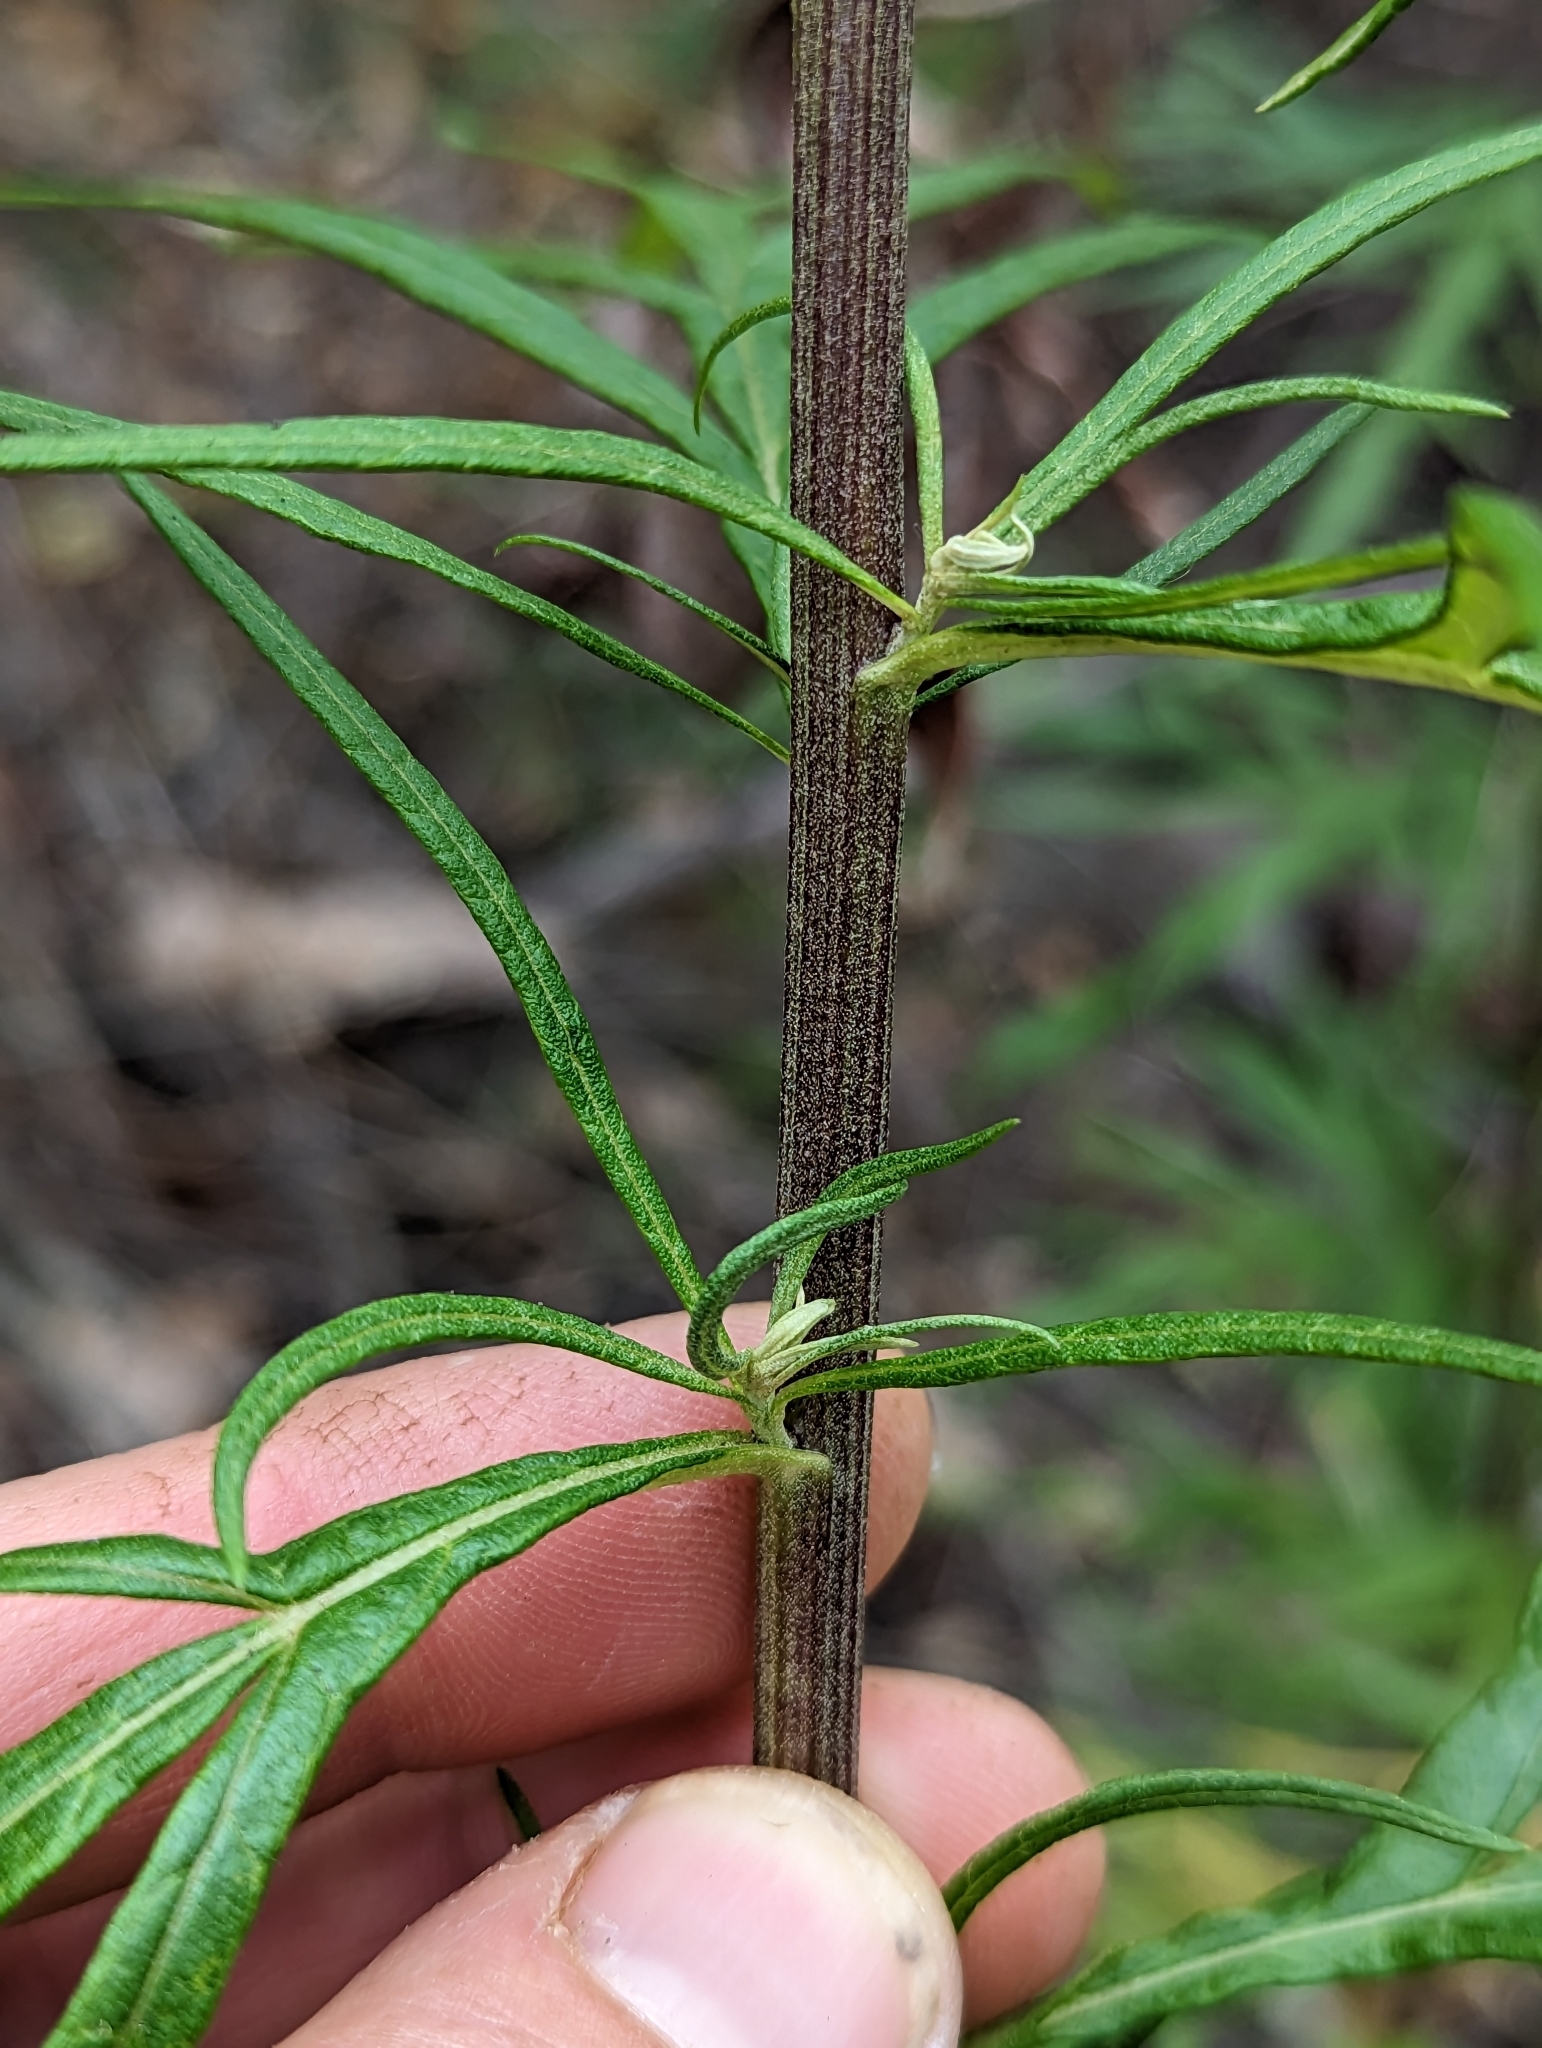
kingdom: Plantae
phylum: Tracheophyta
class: Magnoliopsida
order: Asterales
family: Asteraceae
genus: Artemisia
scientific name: Artemisia palmeri
